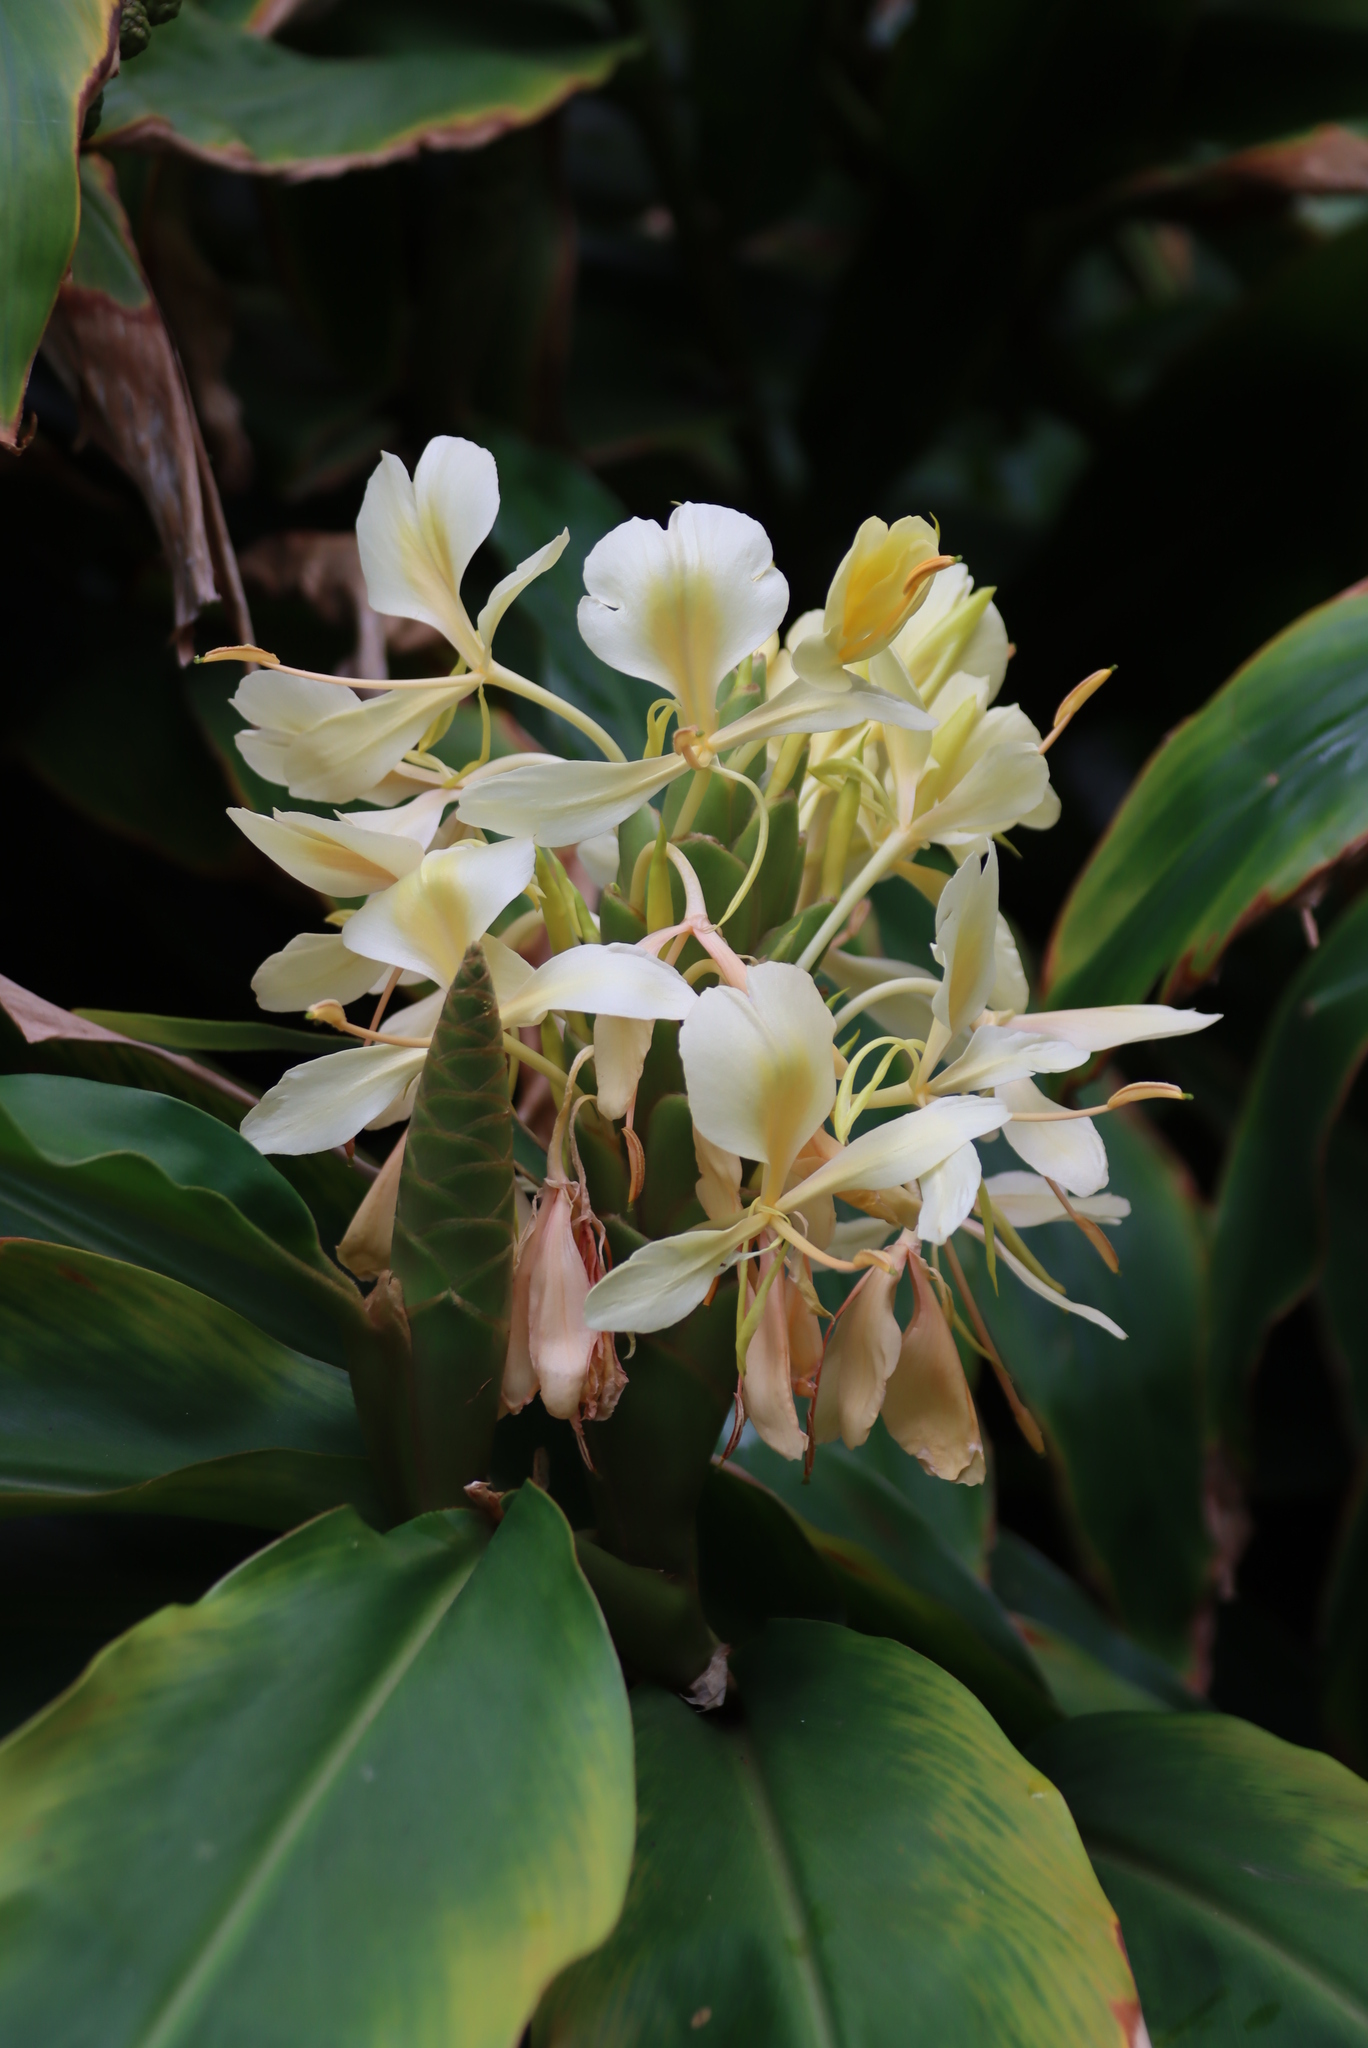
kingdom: Plantae
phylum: Tracheophyta
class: Liliopsida
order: Zingiberales
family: Zingiberaceae
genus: Hedychium
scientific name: Hedychium flavescens
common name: Yellow ginger
